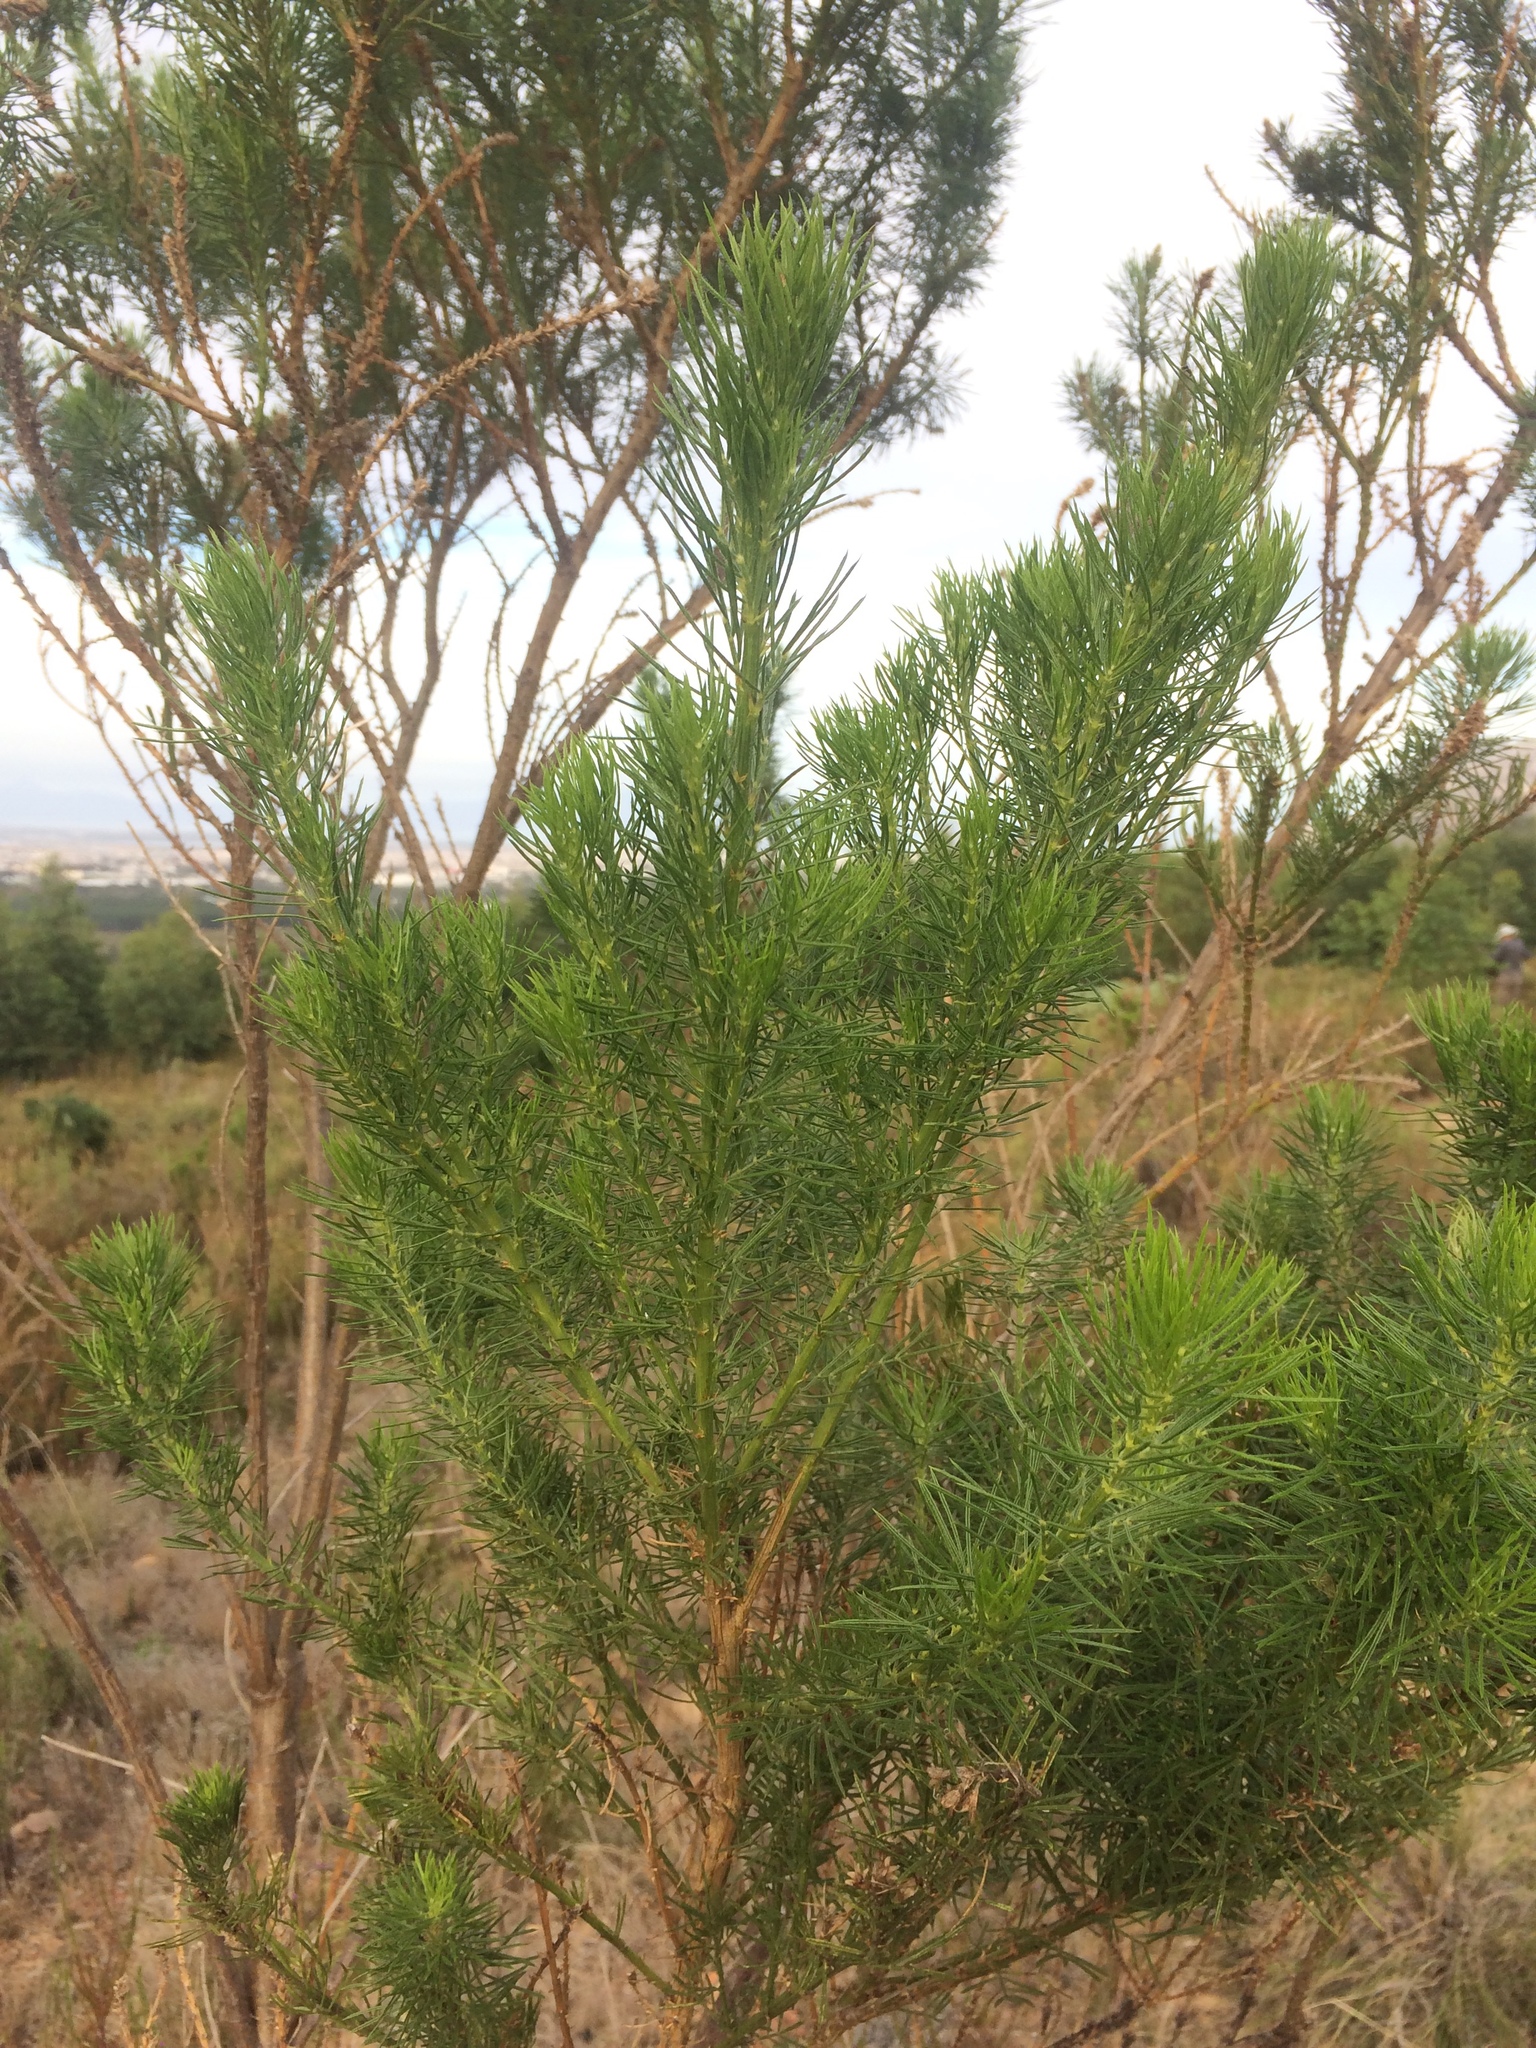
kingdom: Plantae
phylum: Tracheophyta
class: Magnoliopsida
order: Fabales
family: Fabaceae
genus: Psoralea
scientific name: Psoralea pinnata
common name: African scurfpea
